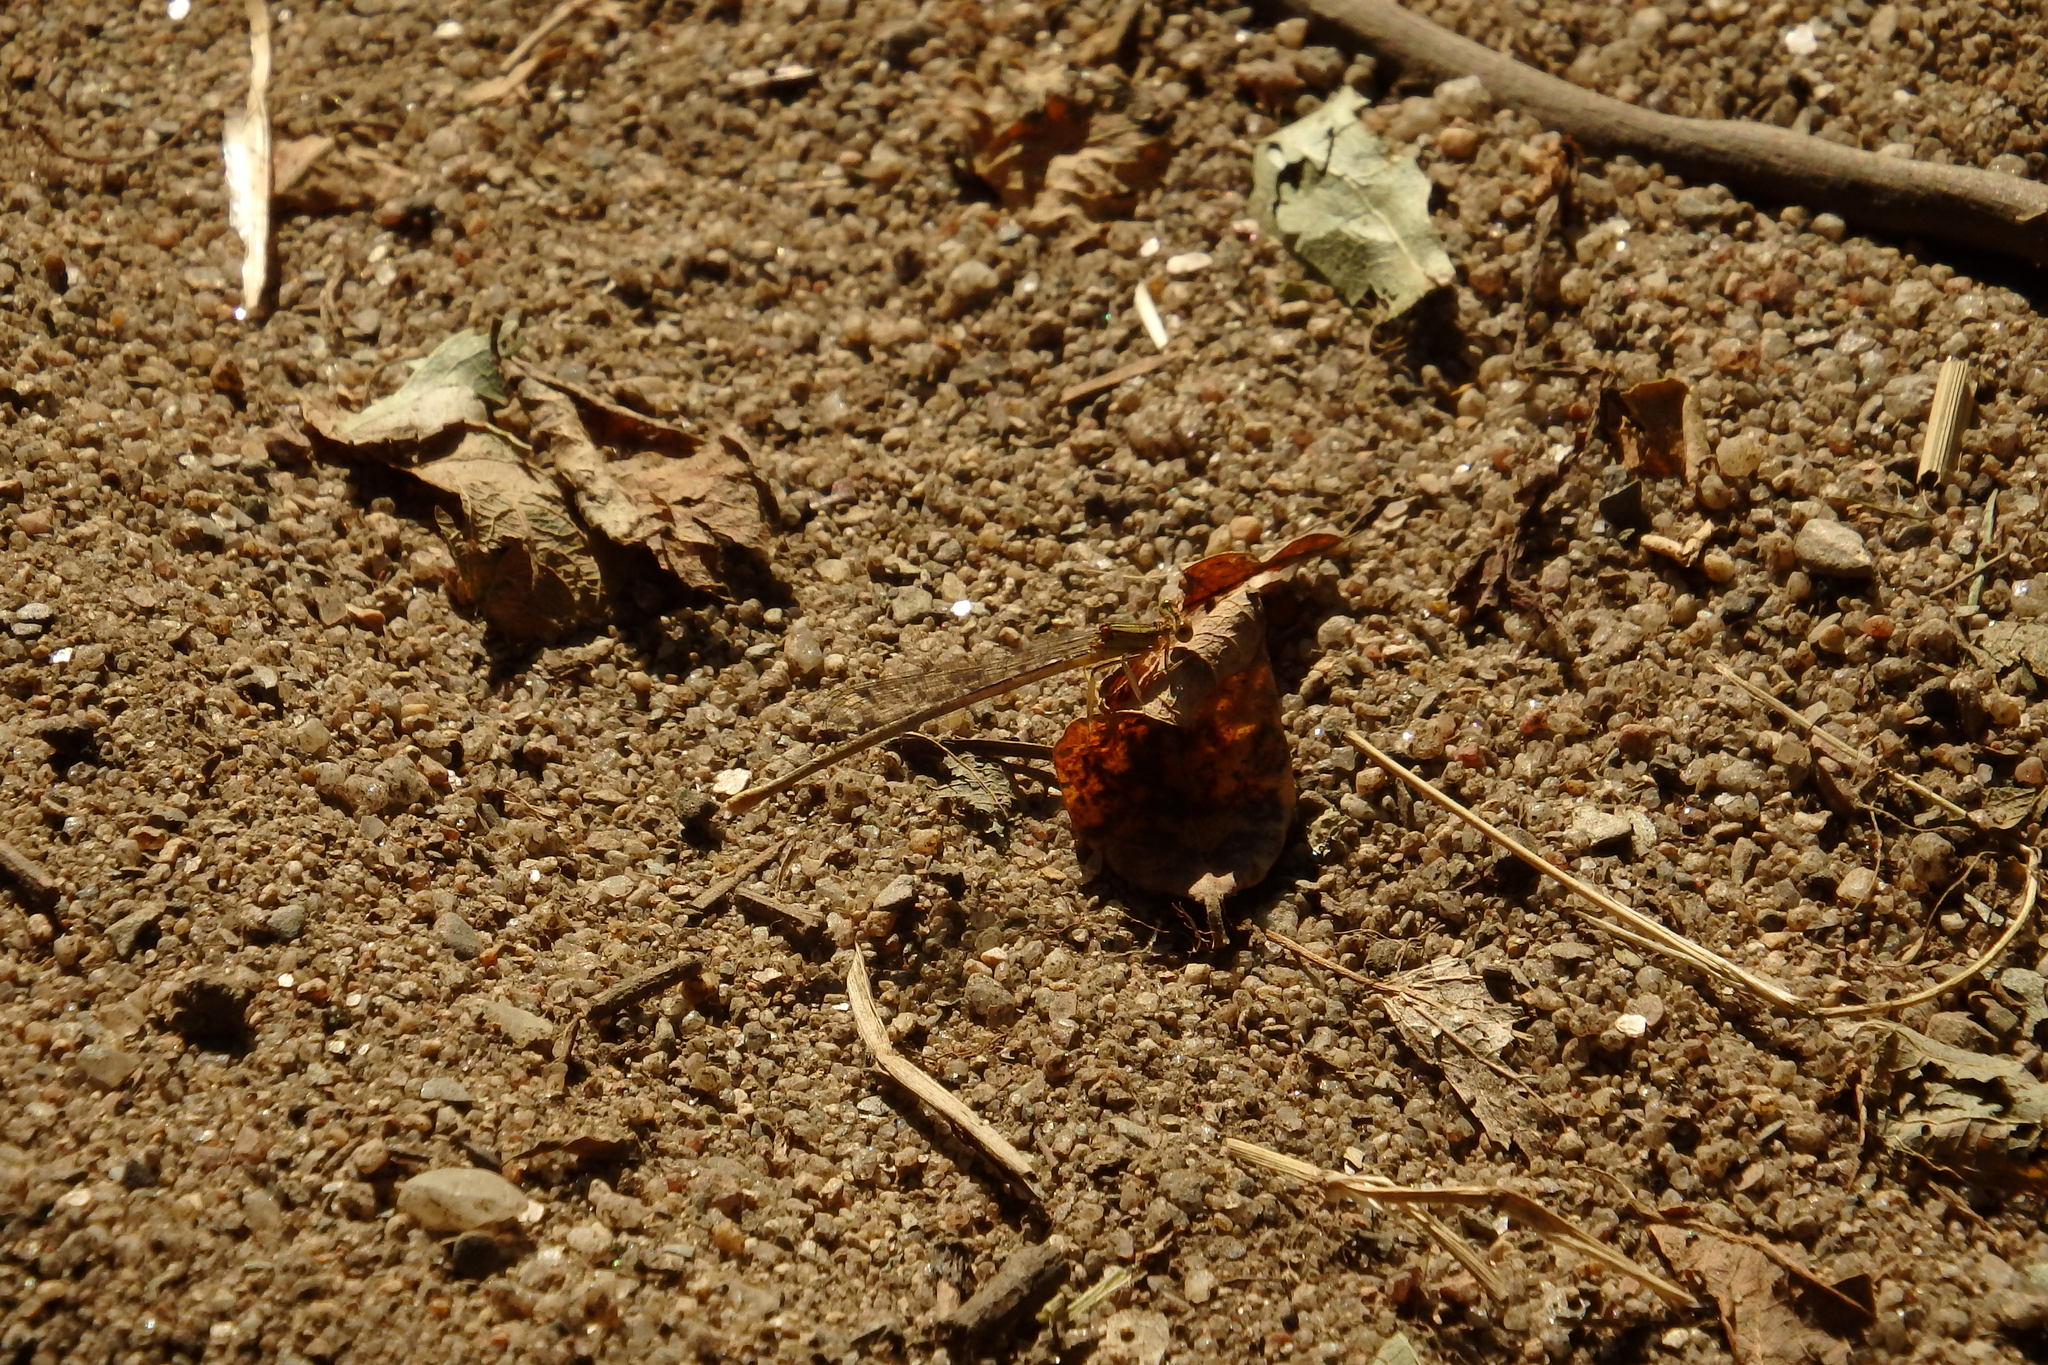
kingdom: Animalia
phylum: Arthropoda
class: Insecta
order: Odonata
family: Platycnemididae
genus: Platycnemis
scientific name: Platycnemis latipes
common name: White featherleg
